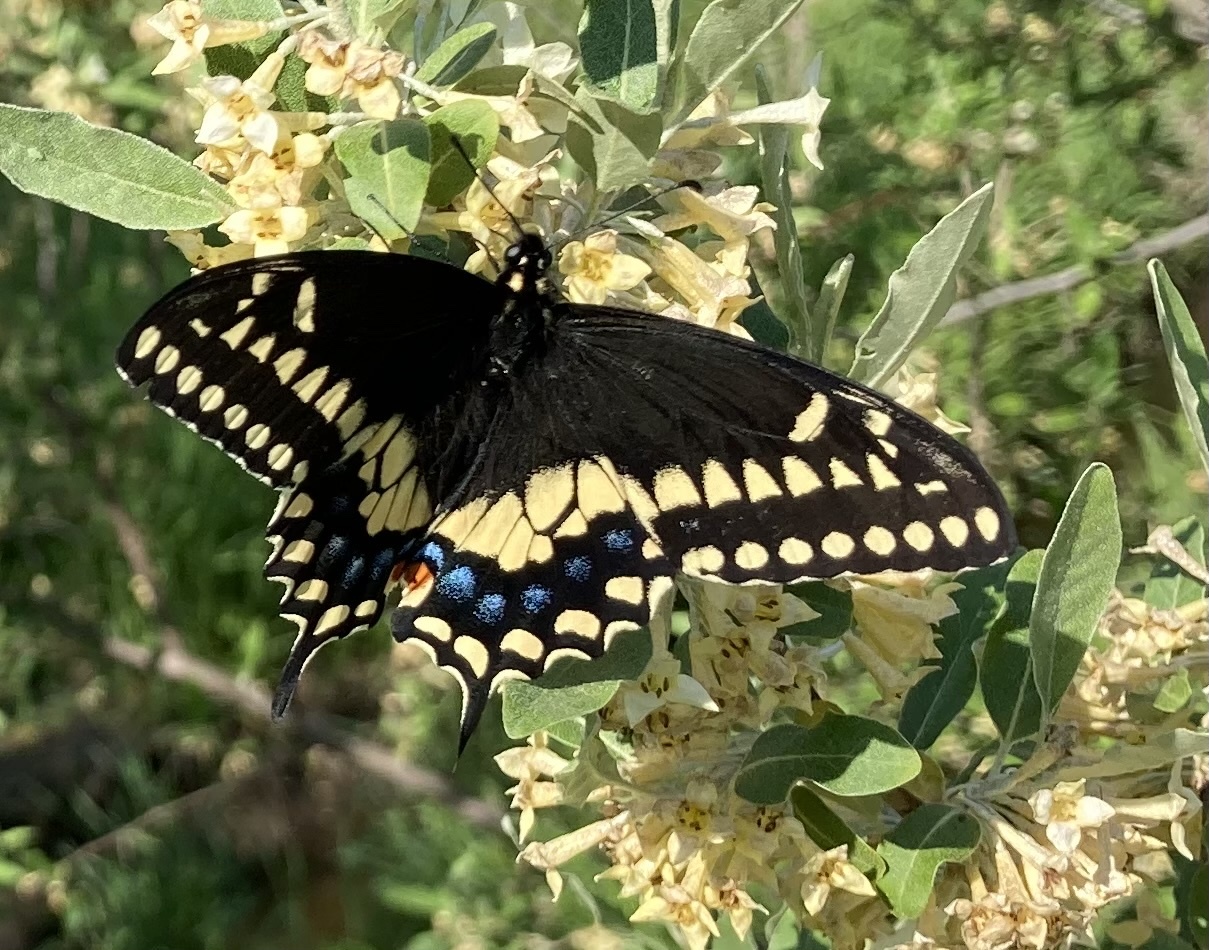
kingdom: Animalia
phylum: Arthropoda
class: Insecta
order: Lepidoptera
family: Papilionidae
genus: Papilio
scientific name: Papilio polyxenes
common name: Black swallowtail
